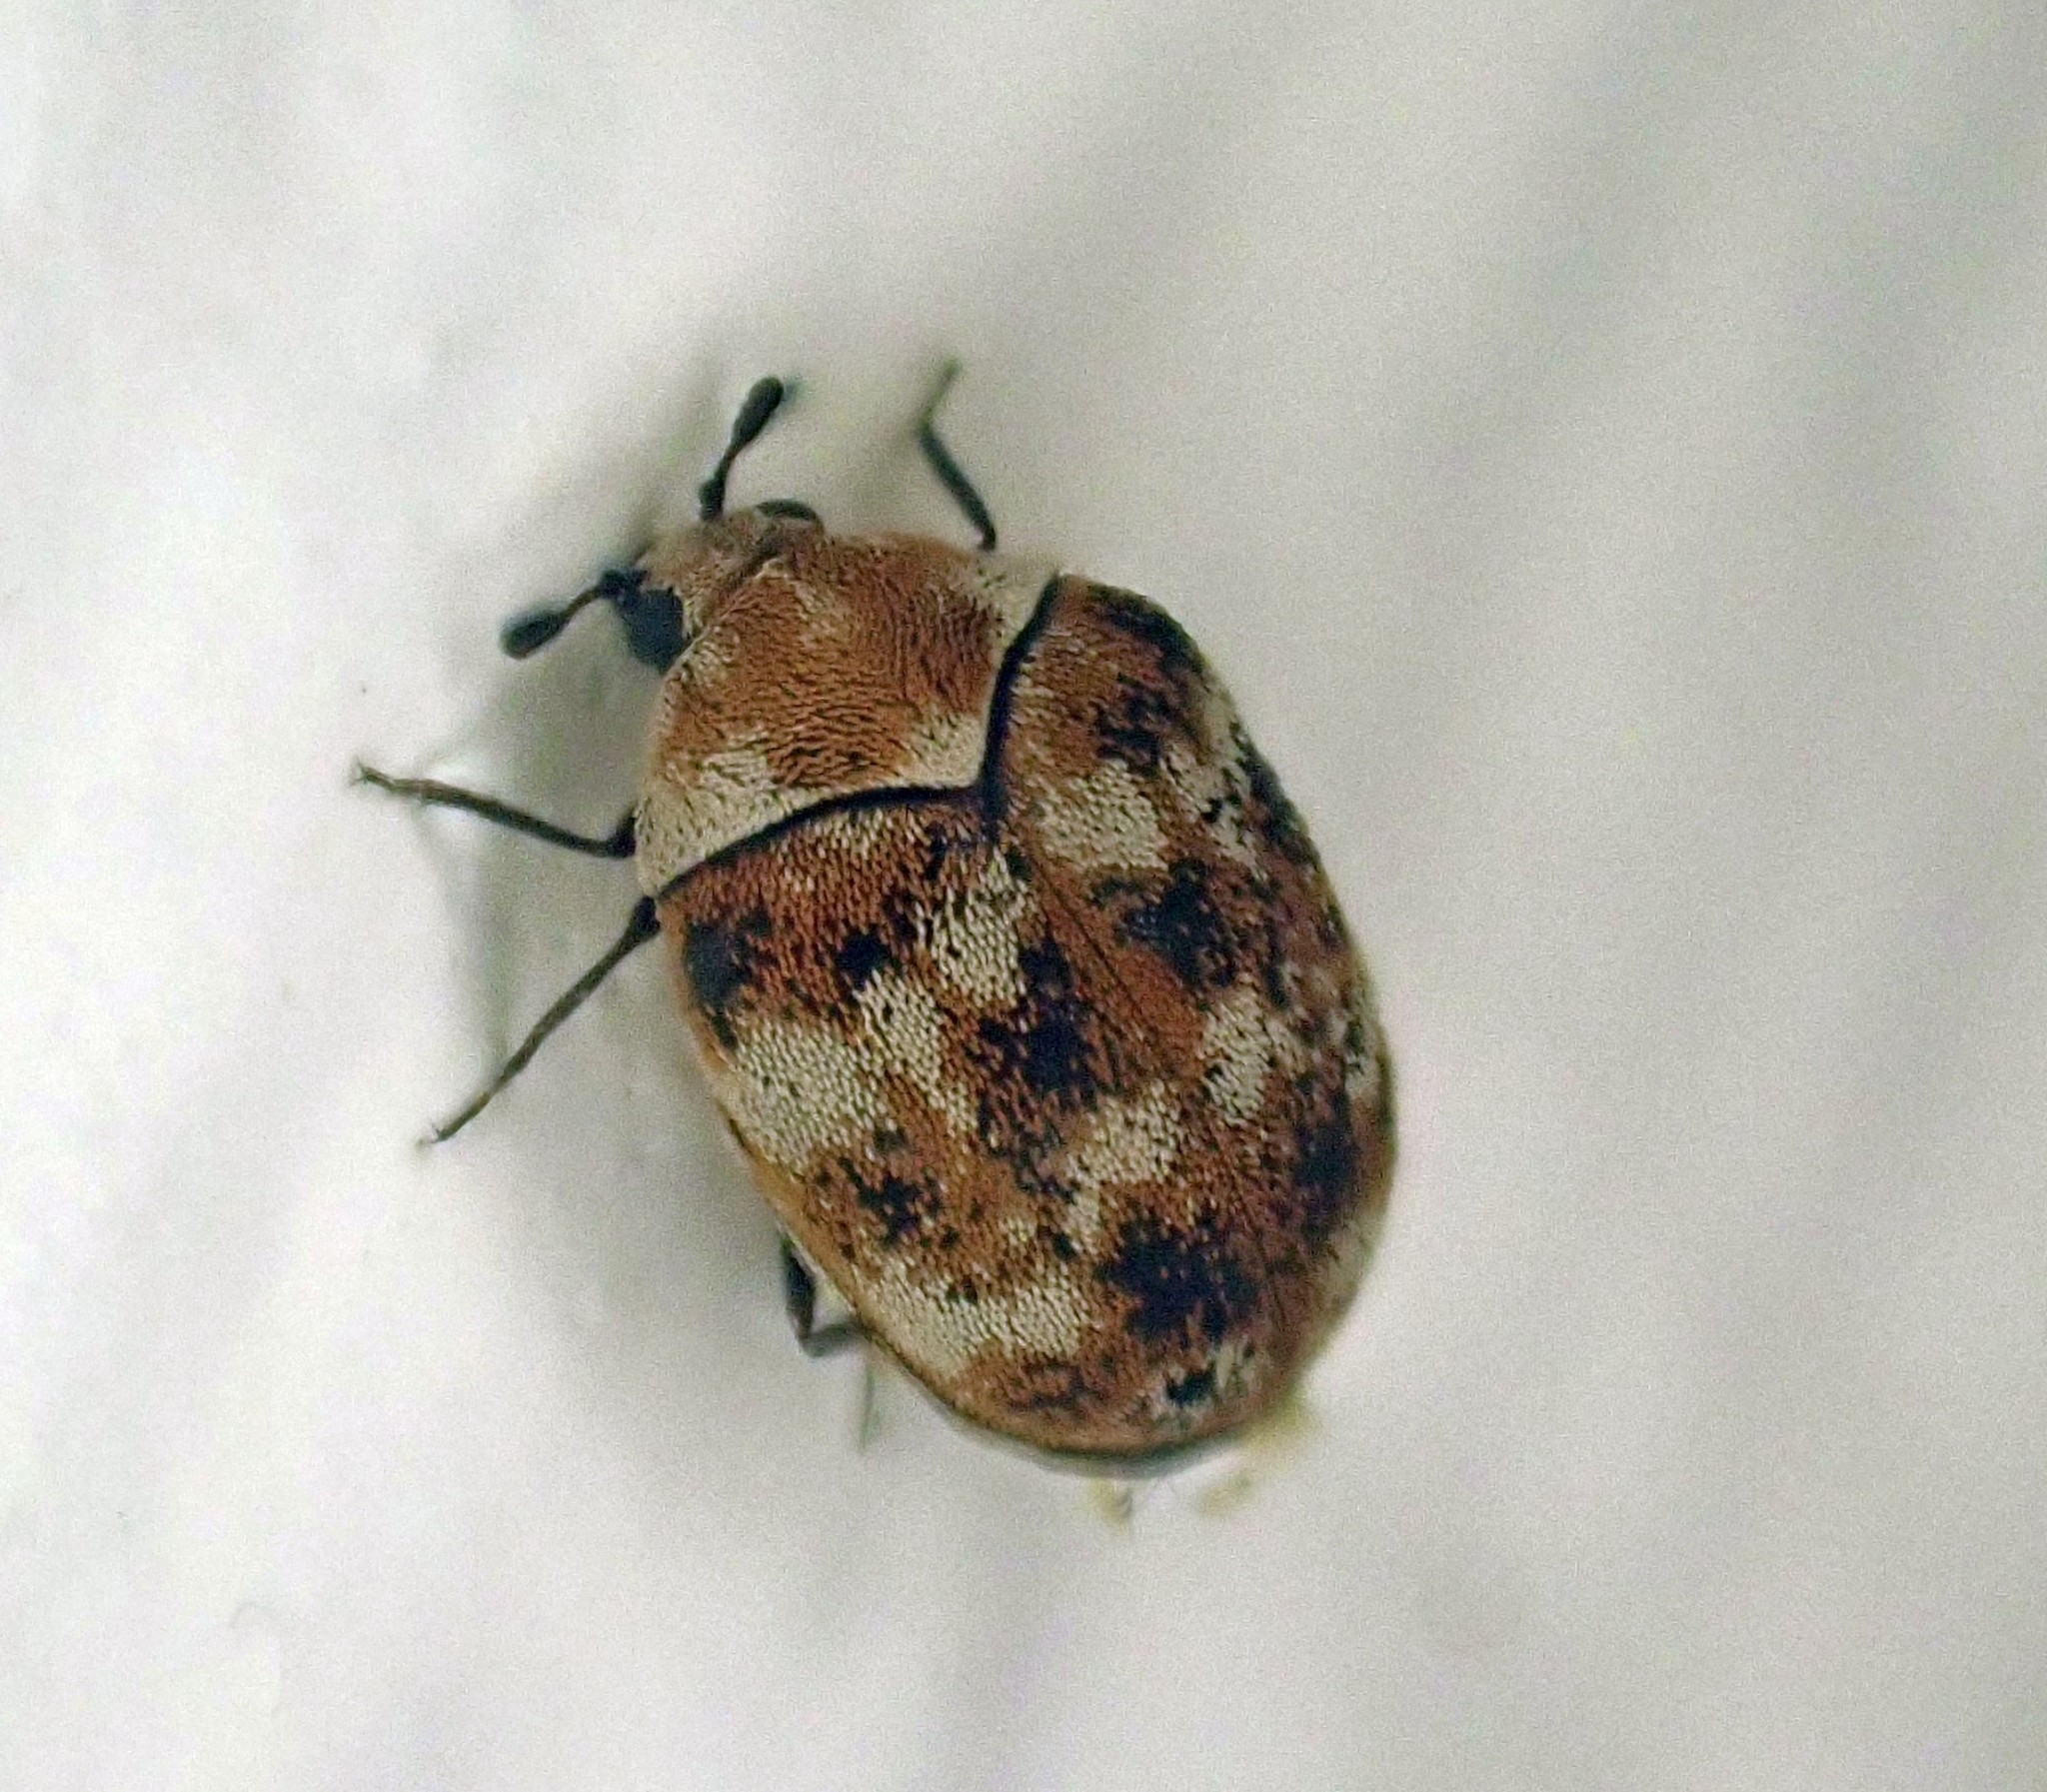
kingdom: Animalia
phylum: Arthropoda
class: Insecta
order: Coleoptera
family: Dermestidae
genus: Anthrenus
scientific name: Anthrenus verbasci
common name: Varied carpet beetle
